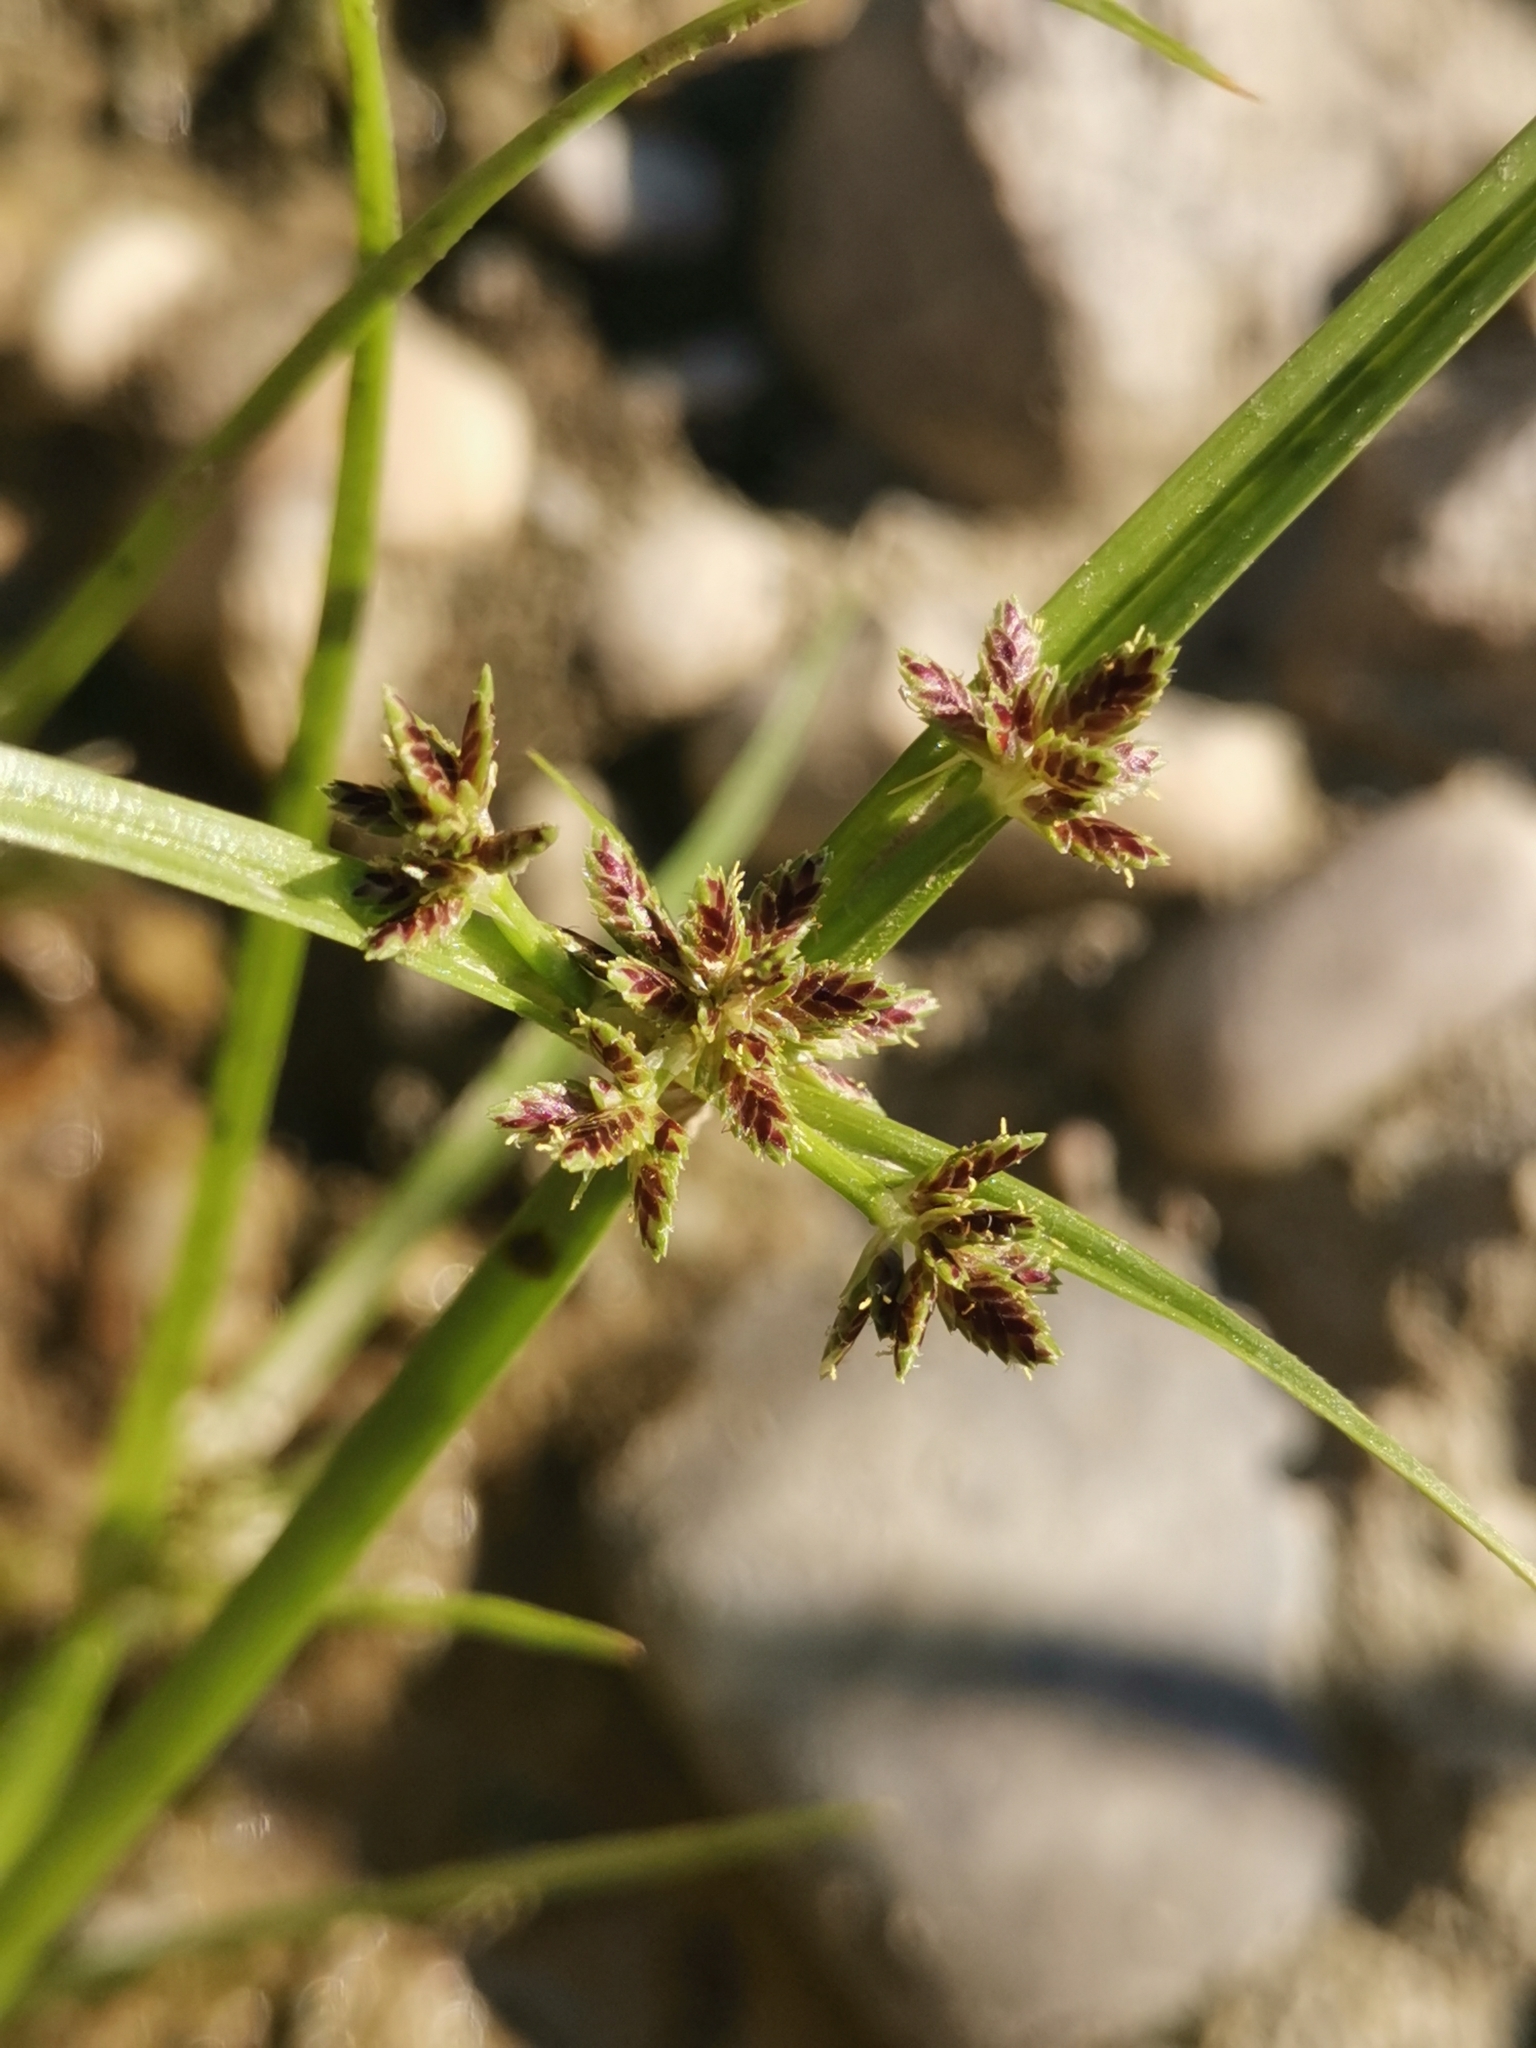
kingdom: Plantae
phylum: Tracheophyta
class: Liliopsida
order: Poales
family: Cyperaceae
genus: Cyperus
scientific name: Cyperus fuscus
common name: Brown galingale
